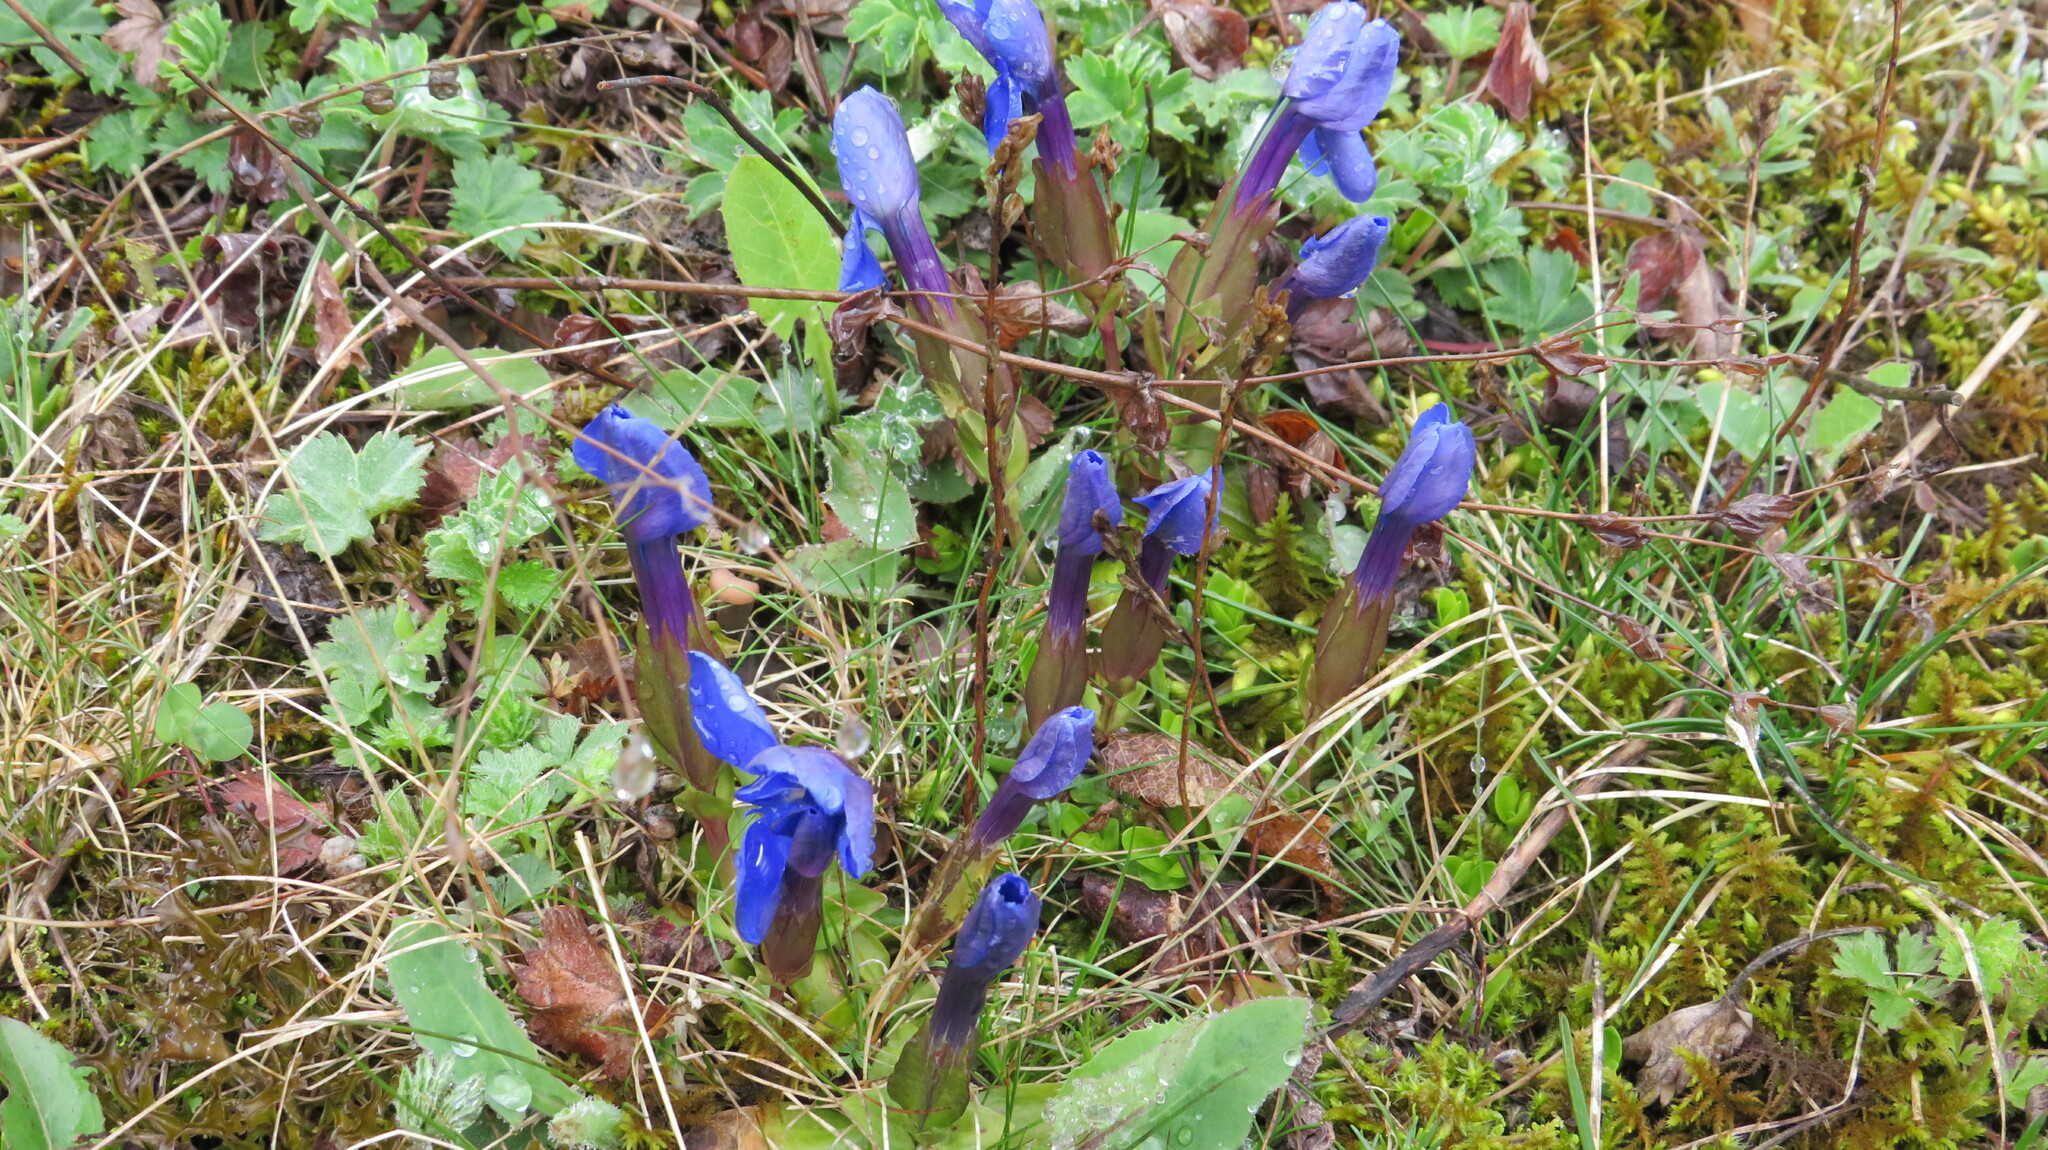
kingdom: Plantae
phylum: Tracheophyta
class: Magnoliopsida
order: Gentianales
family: Gentianaceae
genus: Gentiana
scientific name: Gentiana verna
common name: Spring gentian
